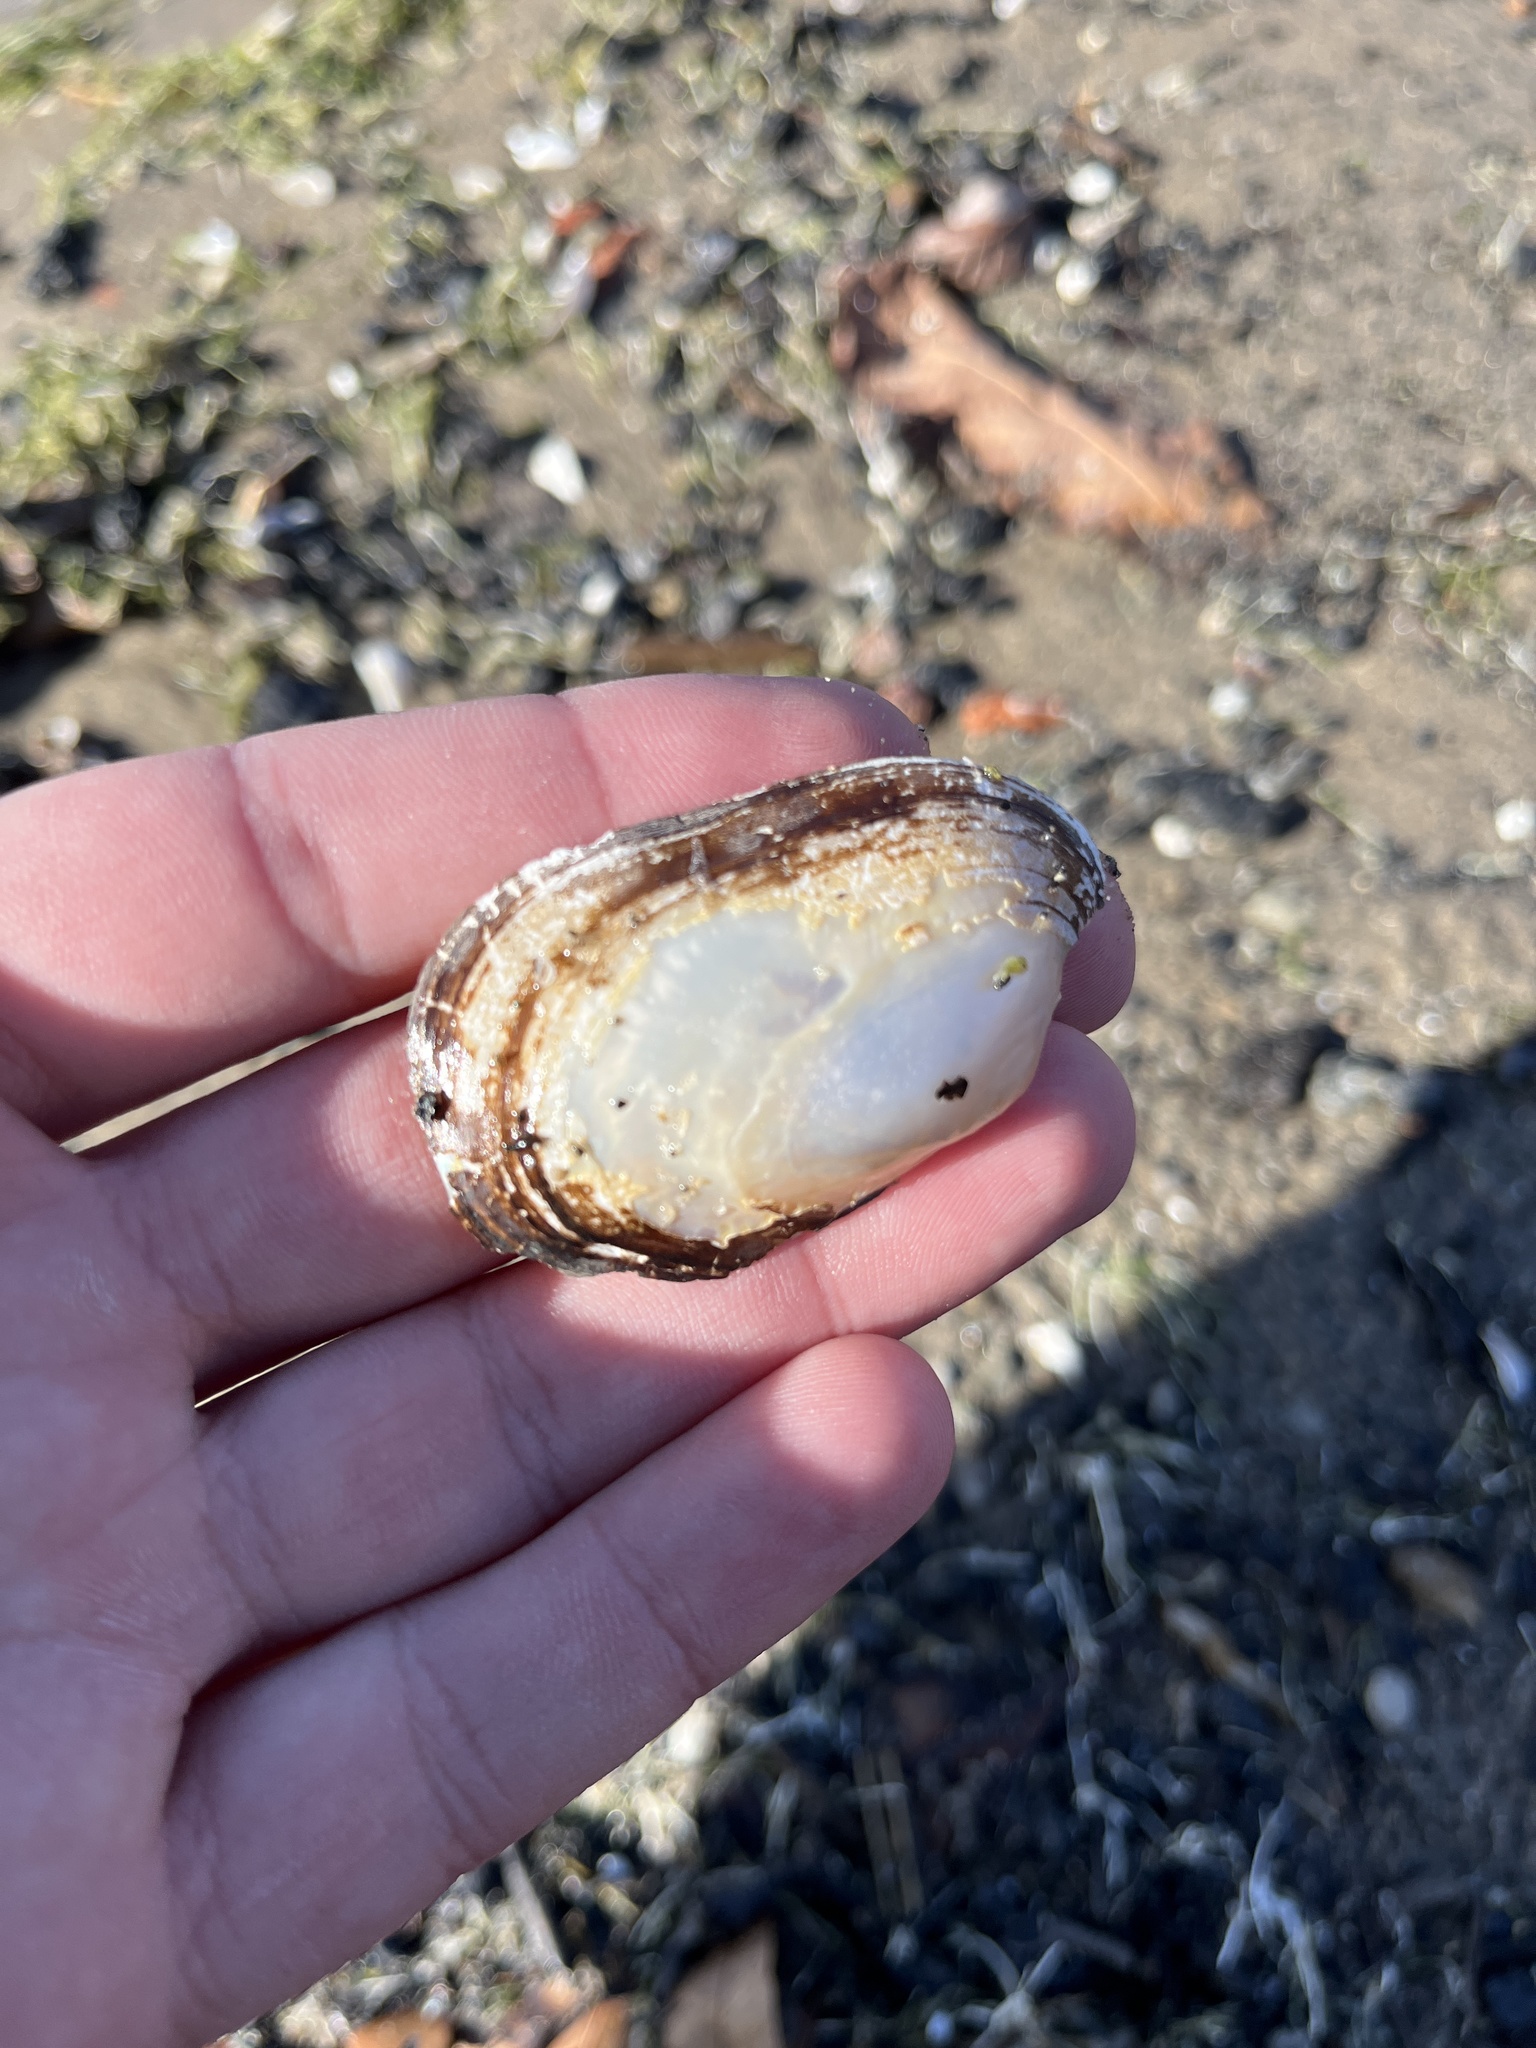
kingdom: Animalia
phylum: Mollusca
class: Bivalvia
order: Unionida
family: Unionidae
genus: Lampsilis
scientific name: Lampsilis siliquoidea
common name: Fatmucket
